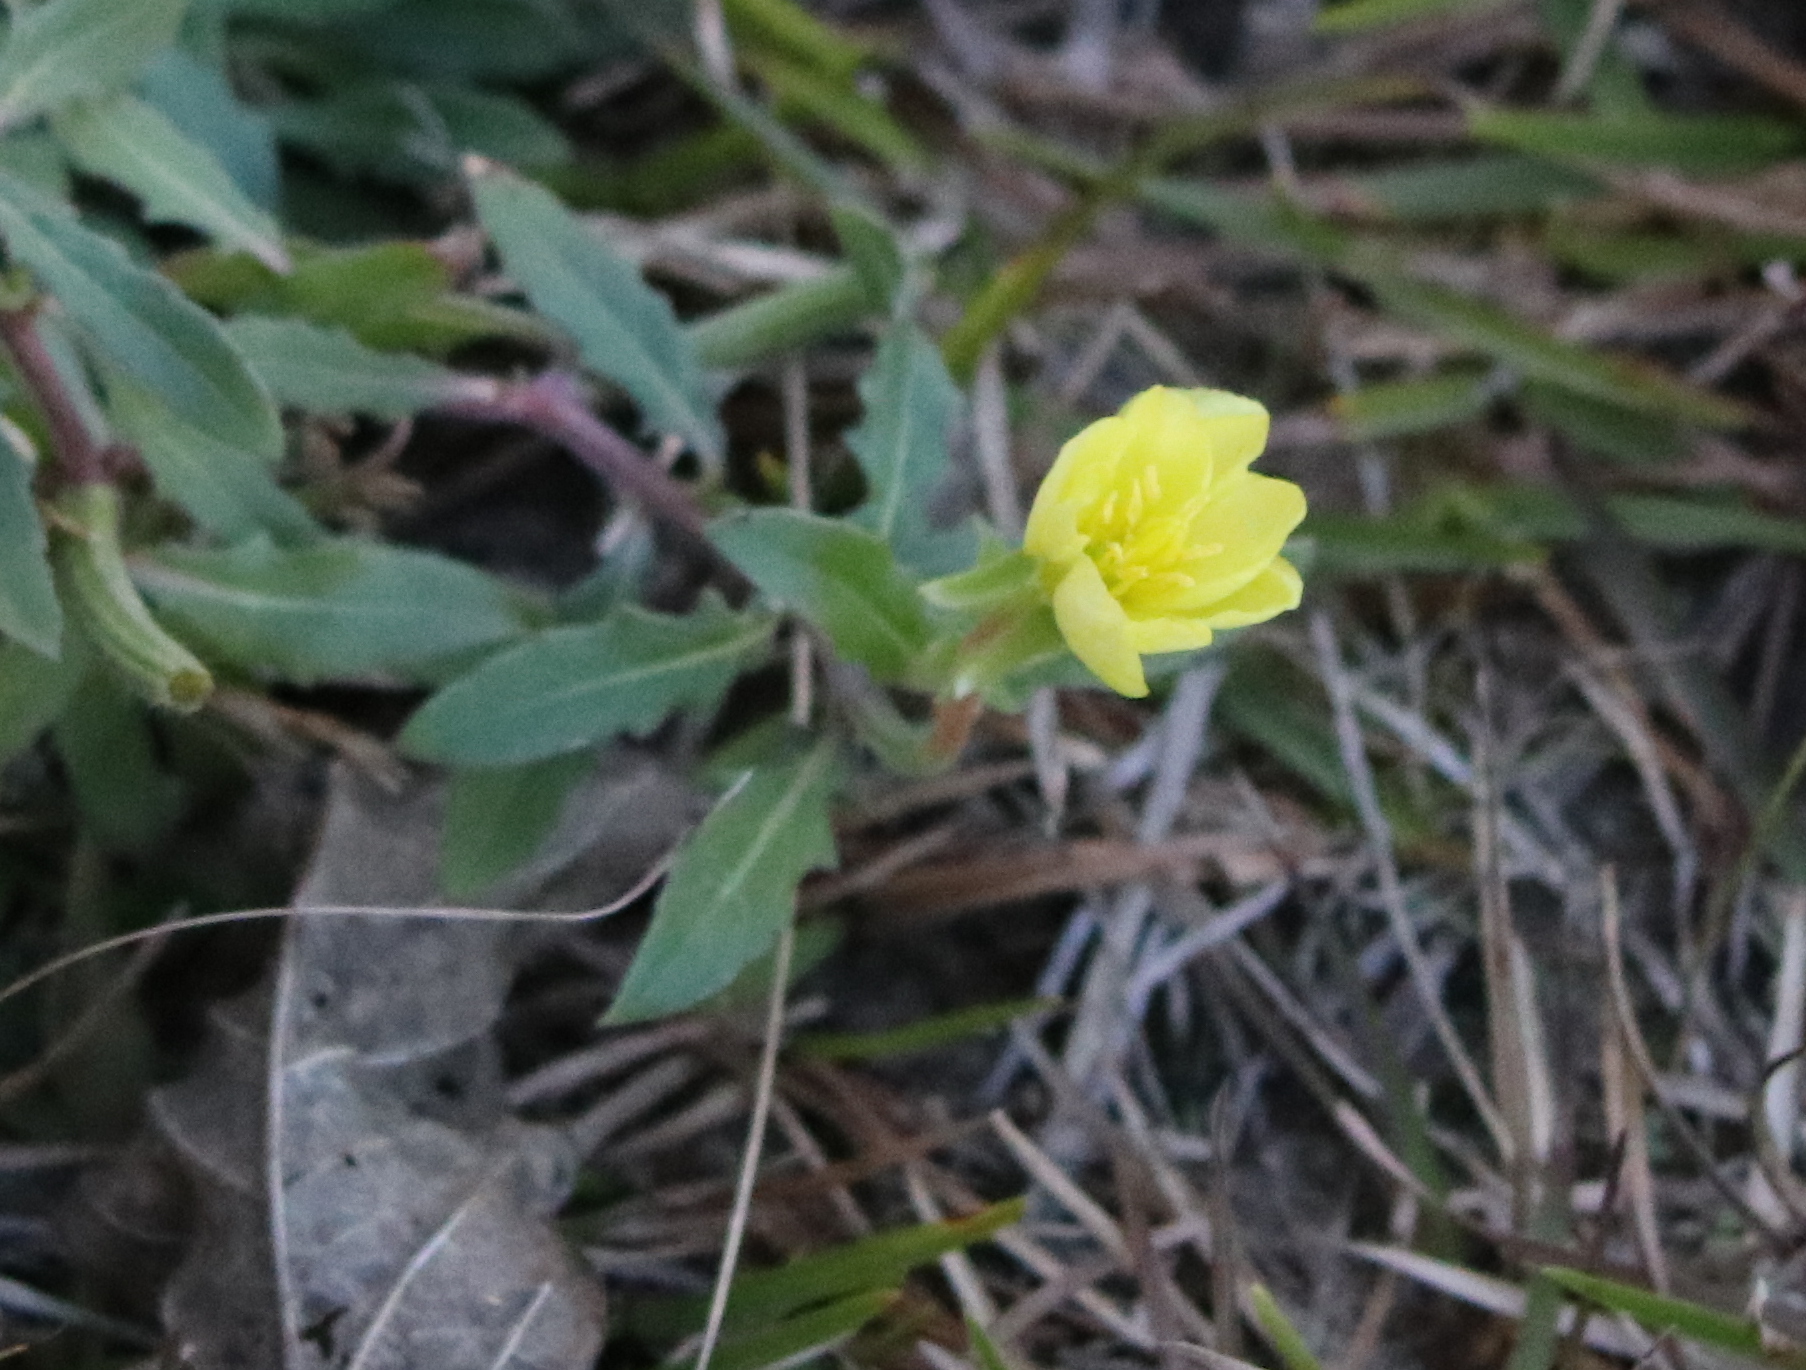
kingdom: Plantae
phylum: Tracheophyta
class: Magnoliopsida
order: Myrtales
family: Onagraceae
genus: Oenothera
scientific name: Oenothera laciniata
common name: Cut-leaved evening-primrose
